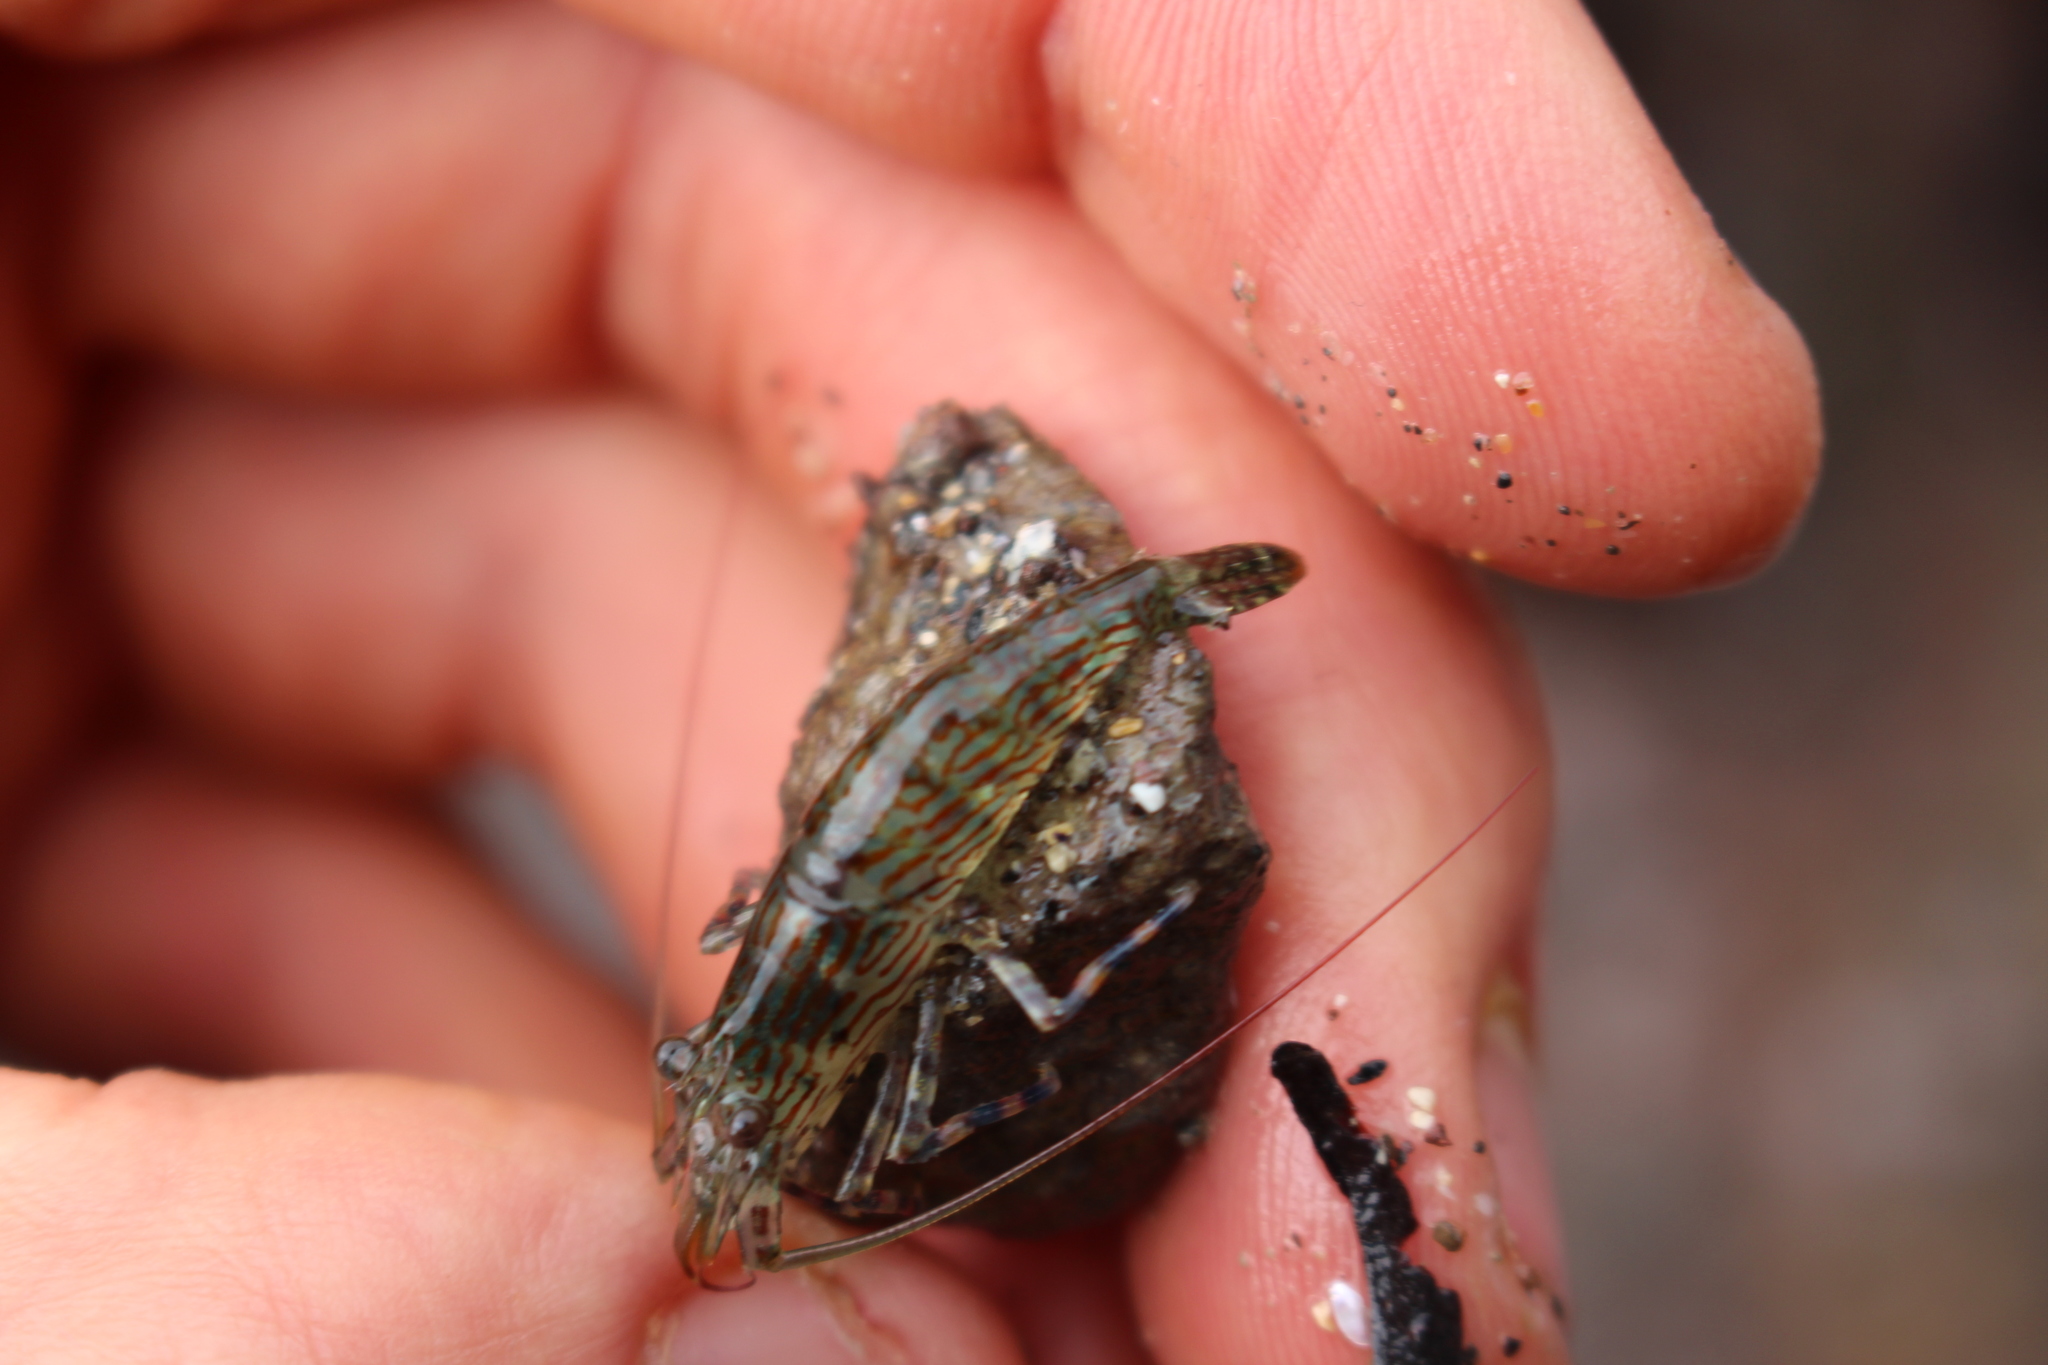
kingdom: Animalia
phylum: Arthropoda
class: Malacostraca
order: Decapoda
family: Hippolytidae
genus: Alope
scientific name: Alope spinifrons
